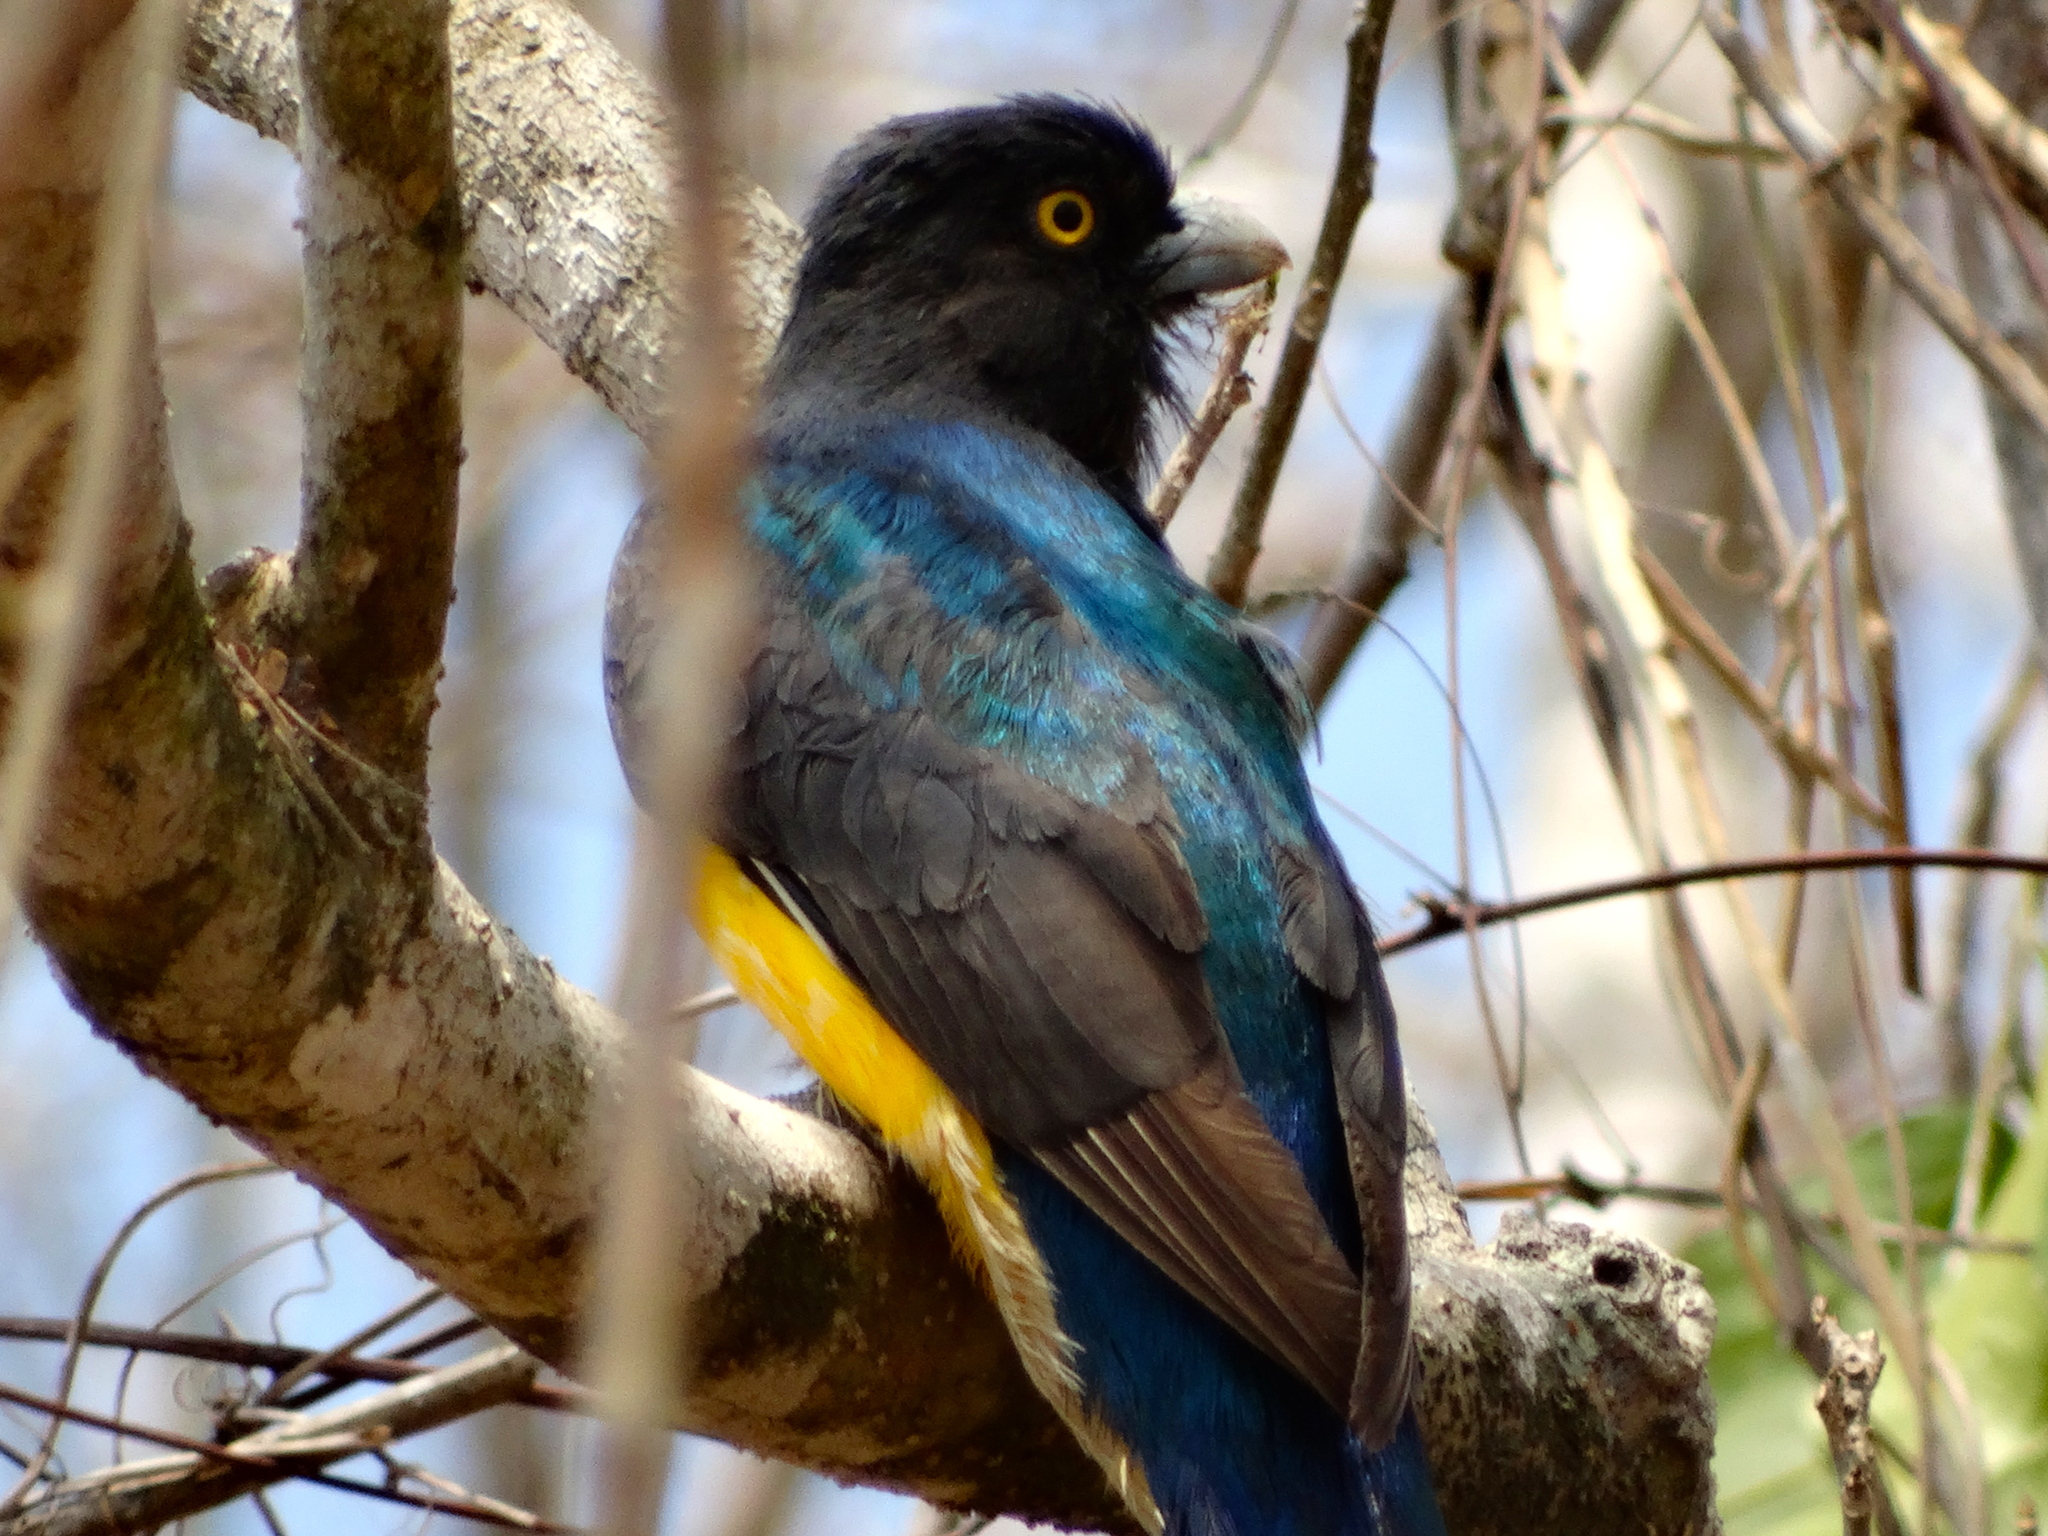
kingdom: Animalia
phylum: Chordata
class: Aves
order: Trogoniformes
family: Trogonidae
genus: Trogon
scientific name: Trogon citreolus
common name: Citreoline trogon
